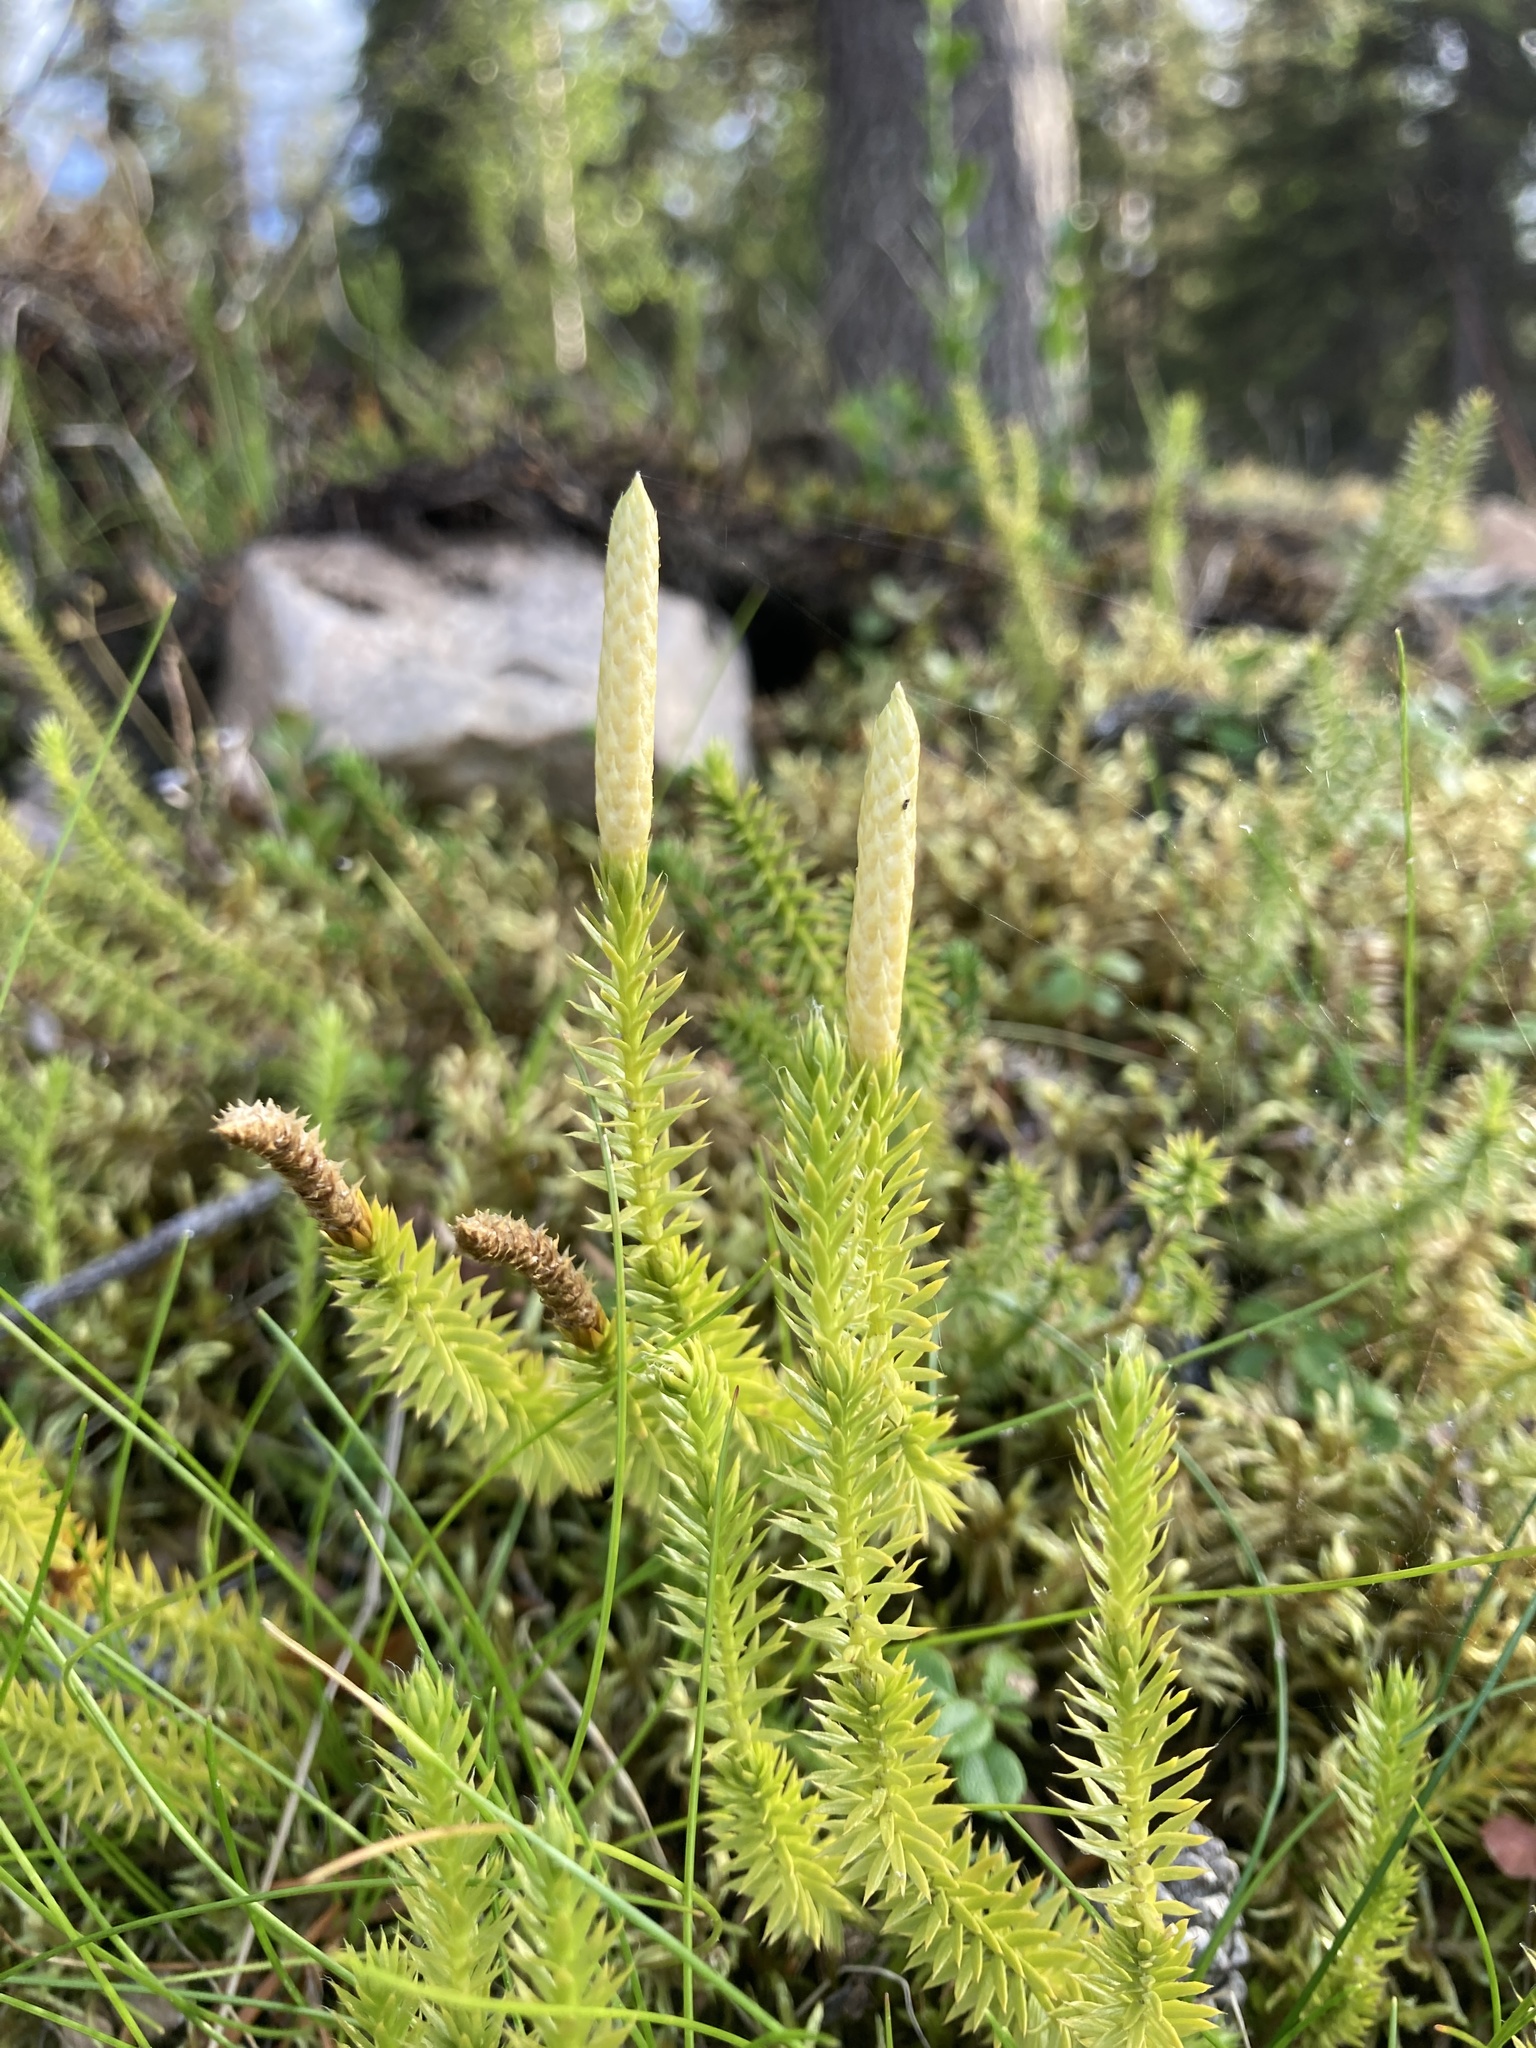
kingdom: Plantae
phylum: Tracheophyta
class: Lycopodiopsida
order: Lycopodiales
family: Lycopodiaceae
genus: Spinulum
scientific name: Spinulum annotinum
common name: Interrupted club-moss
